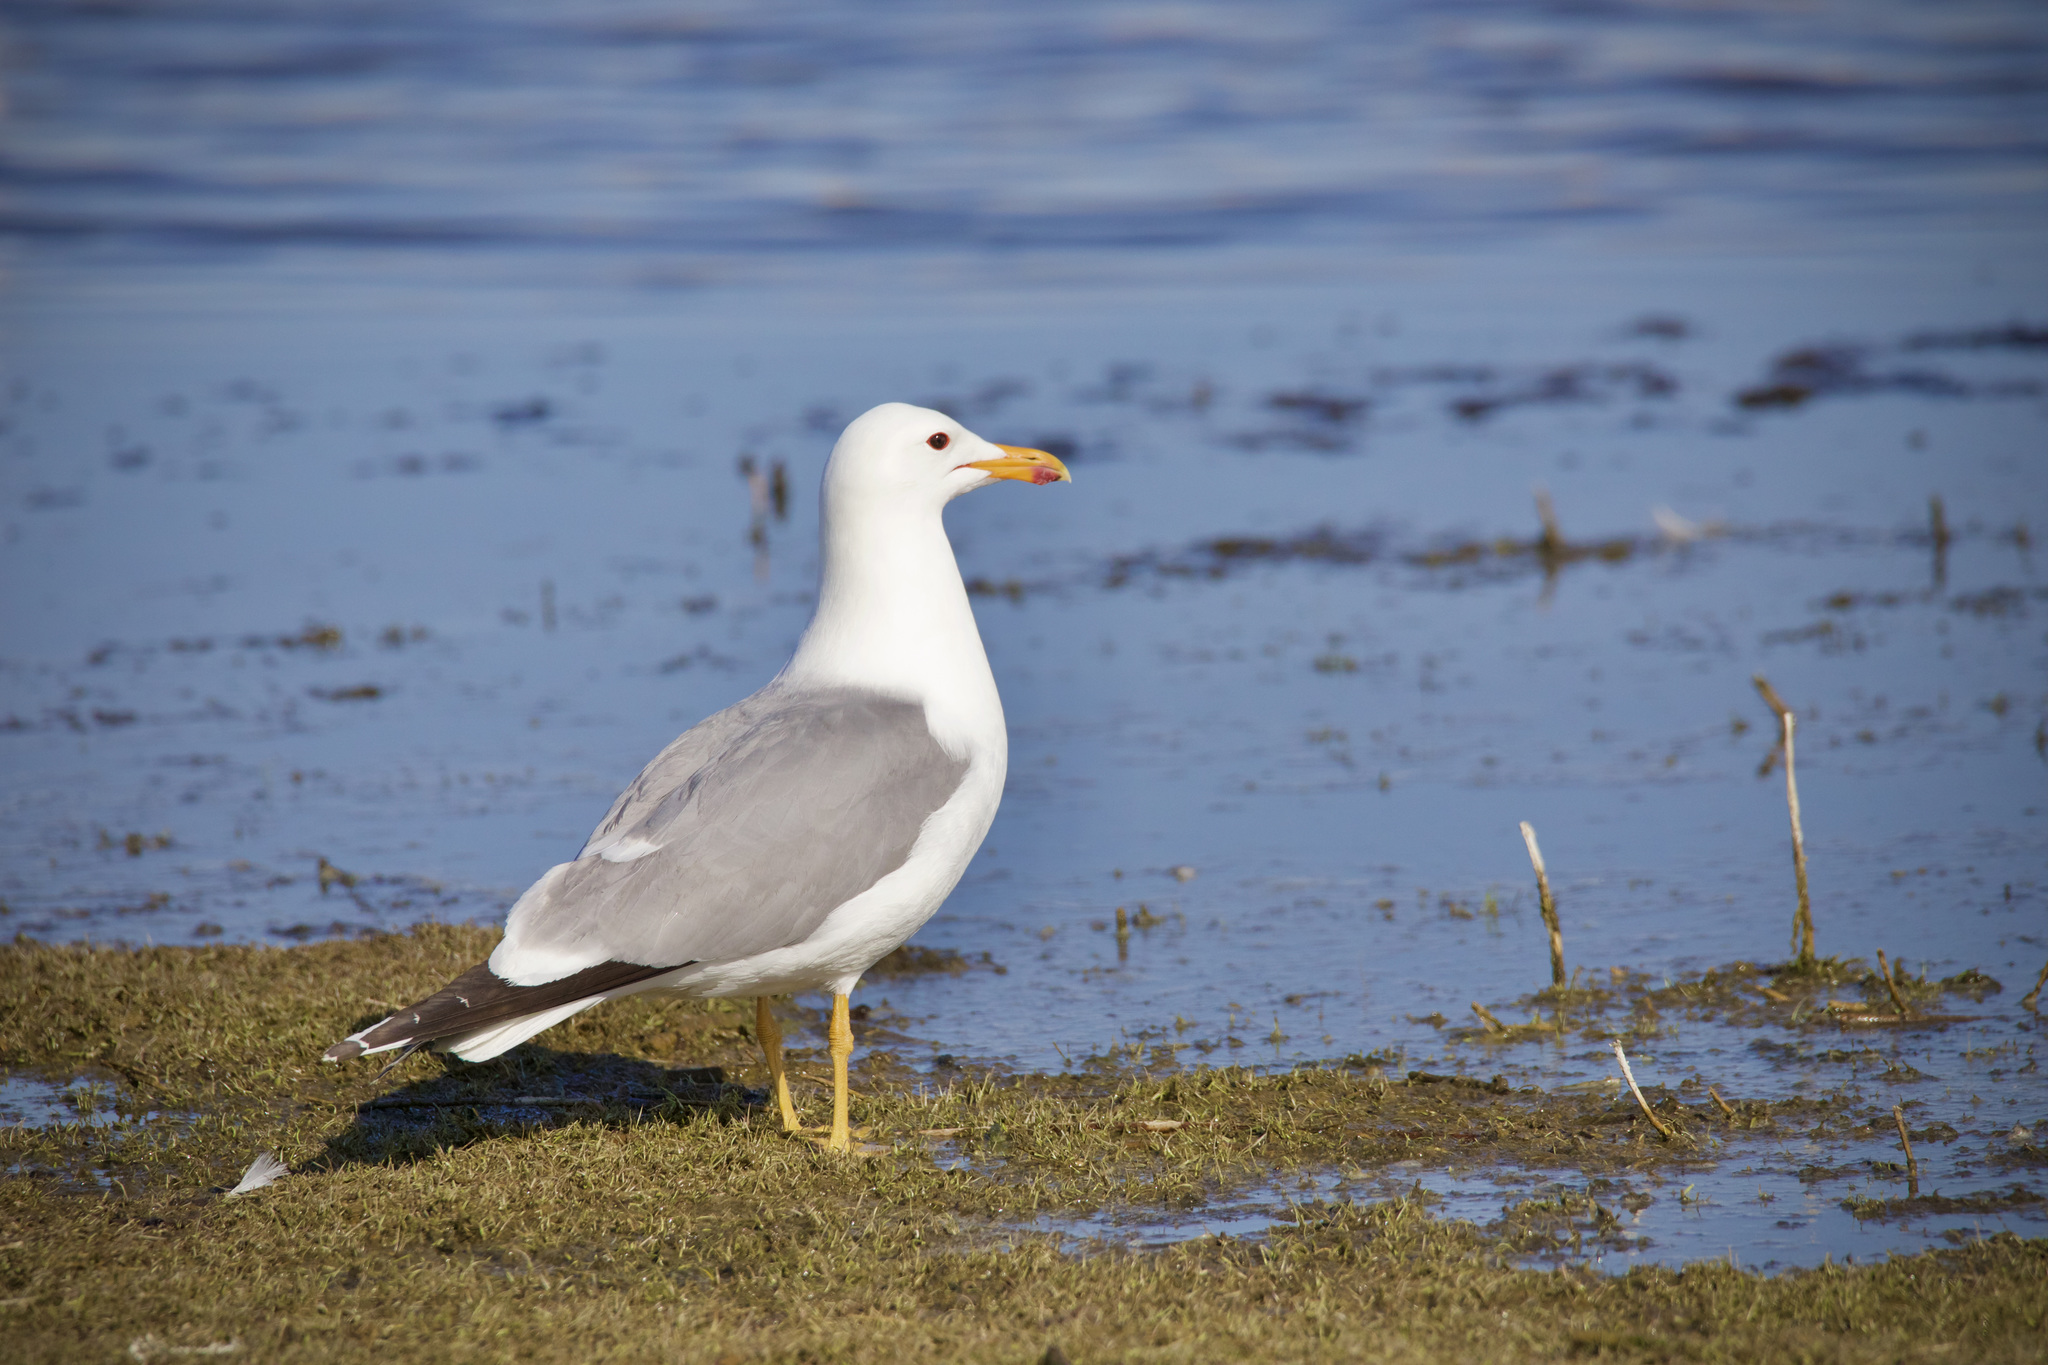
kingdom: Animalia
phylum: Chordata
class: Aves
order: Charadriiformes
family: Laridae
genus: Larus
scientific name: Larus californicus
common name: California gull
